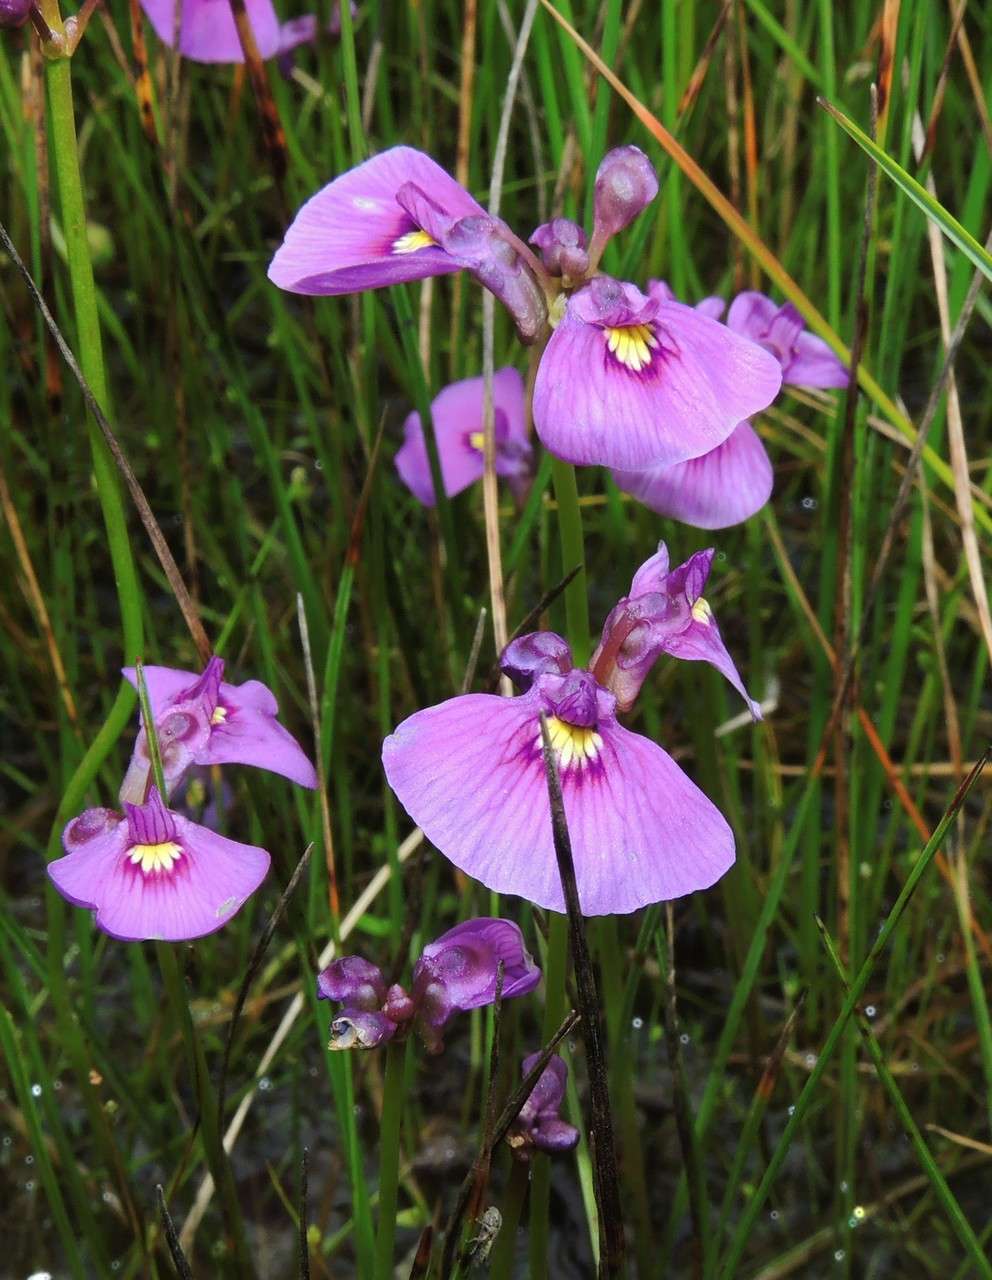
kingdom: Plantae
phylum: Tracheophyta
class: Magnoliopsida
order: Lamiales
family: Lentibulariaceae
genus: Utricularia
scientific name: Utricularia beaugleholei
